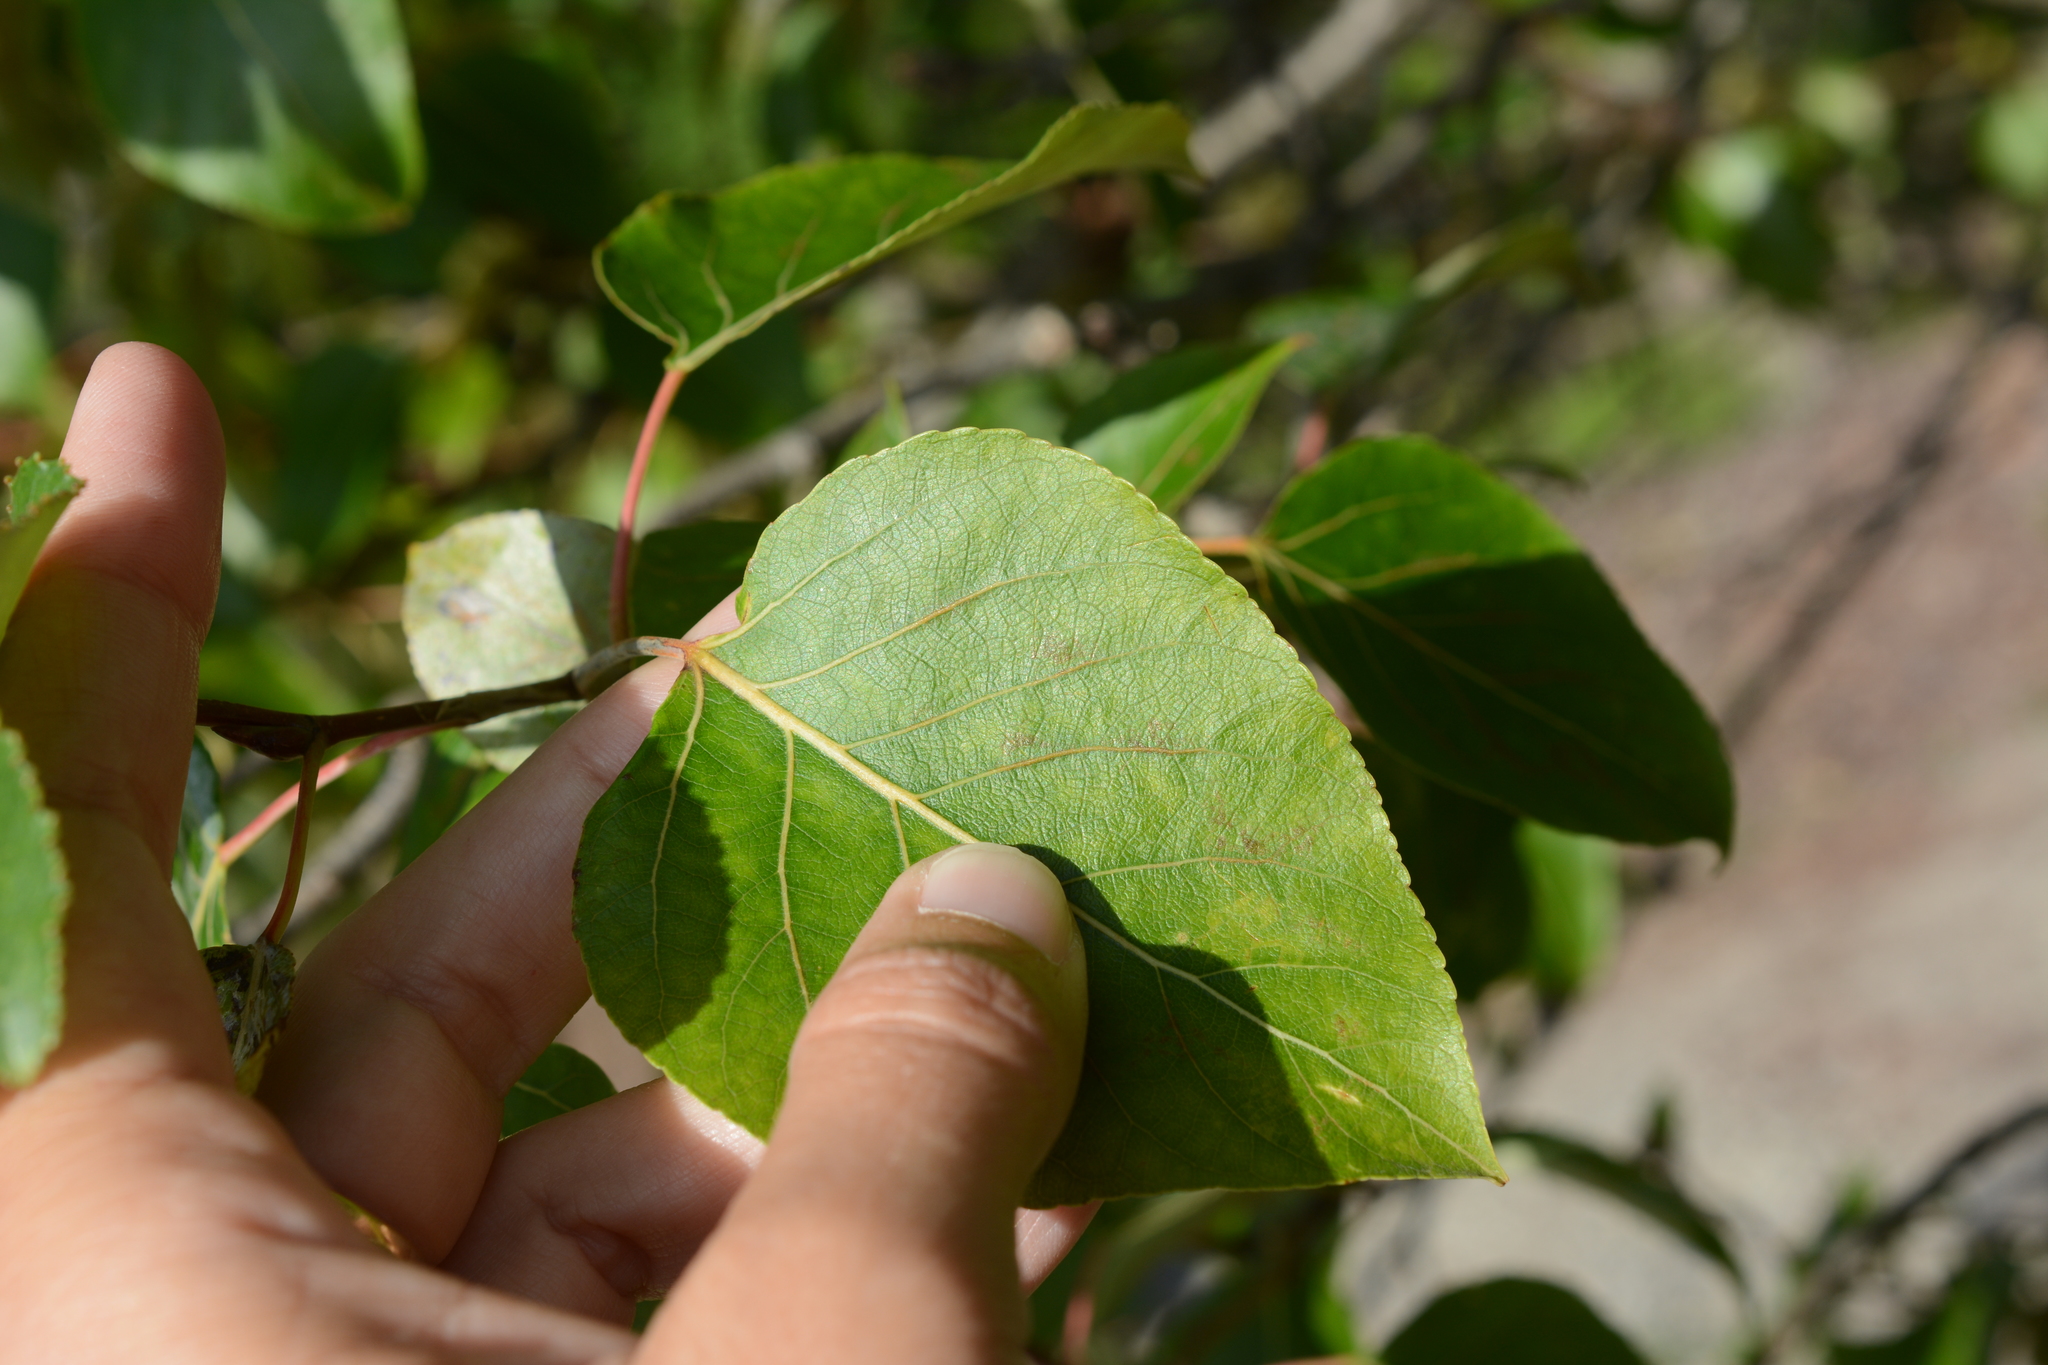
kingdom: Plantae
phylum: Tracheophyta
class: Magnoliopsida
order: Malpighiales
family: Salicaceae
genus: Populus
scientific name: Populus
